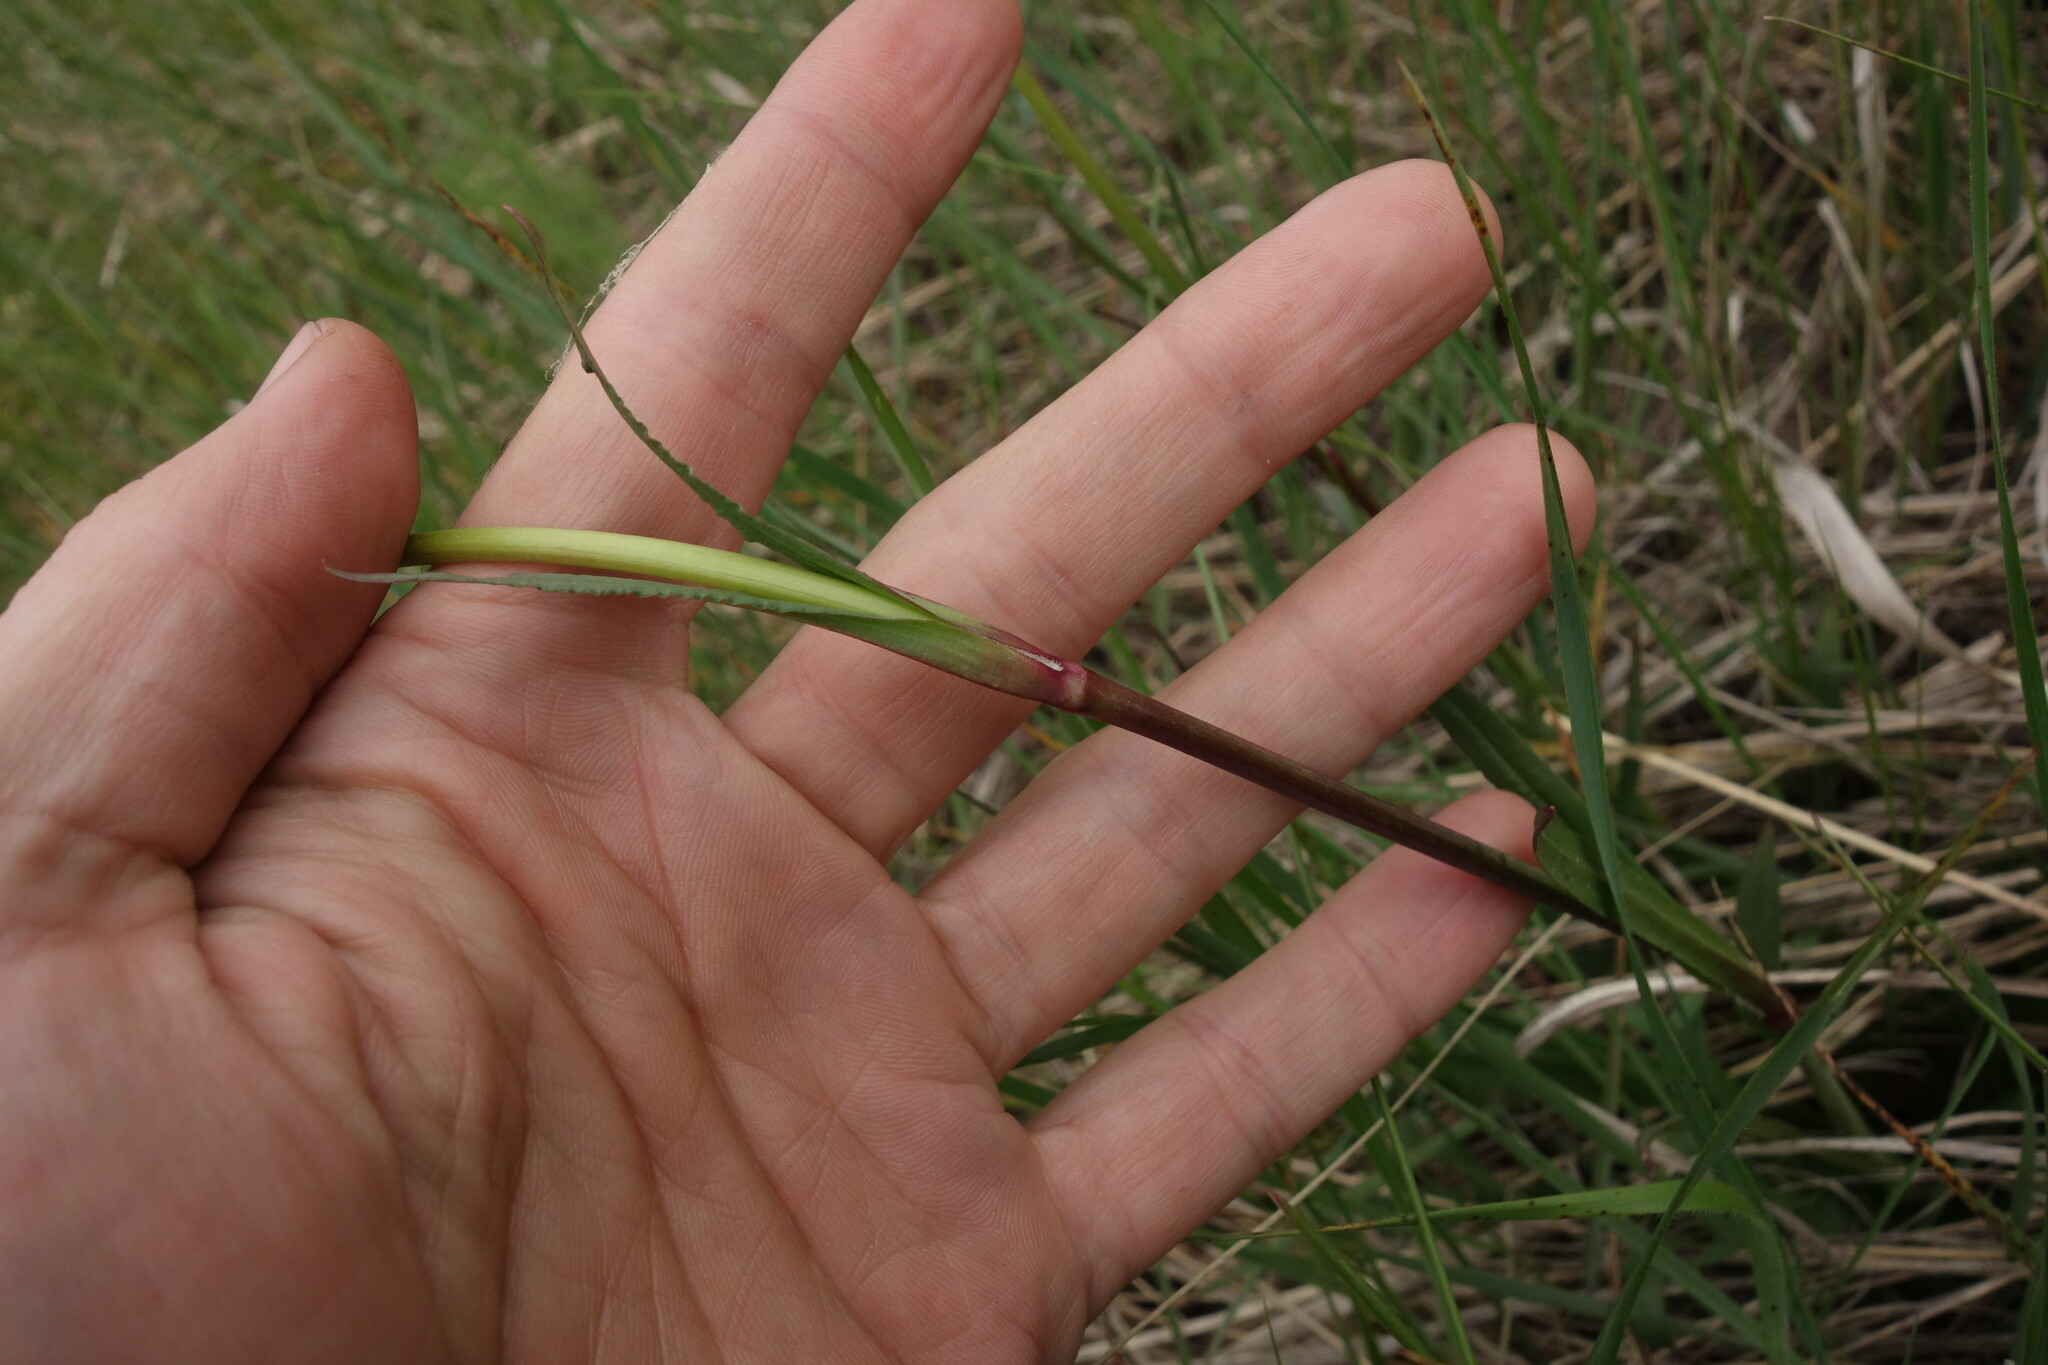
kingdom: Plantae
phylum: Tracheophyta
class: Magnoliopsida
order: Caryophyllales
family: Caryophyllaceae
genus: Viscaria
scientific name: Viscaria vulgaris
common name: Clammy campion
